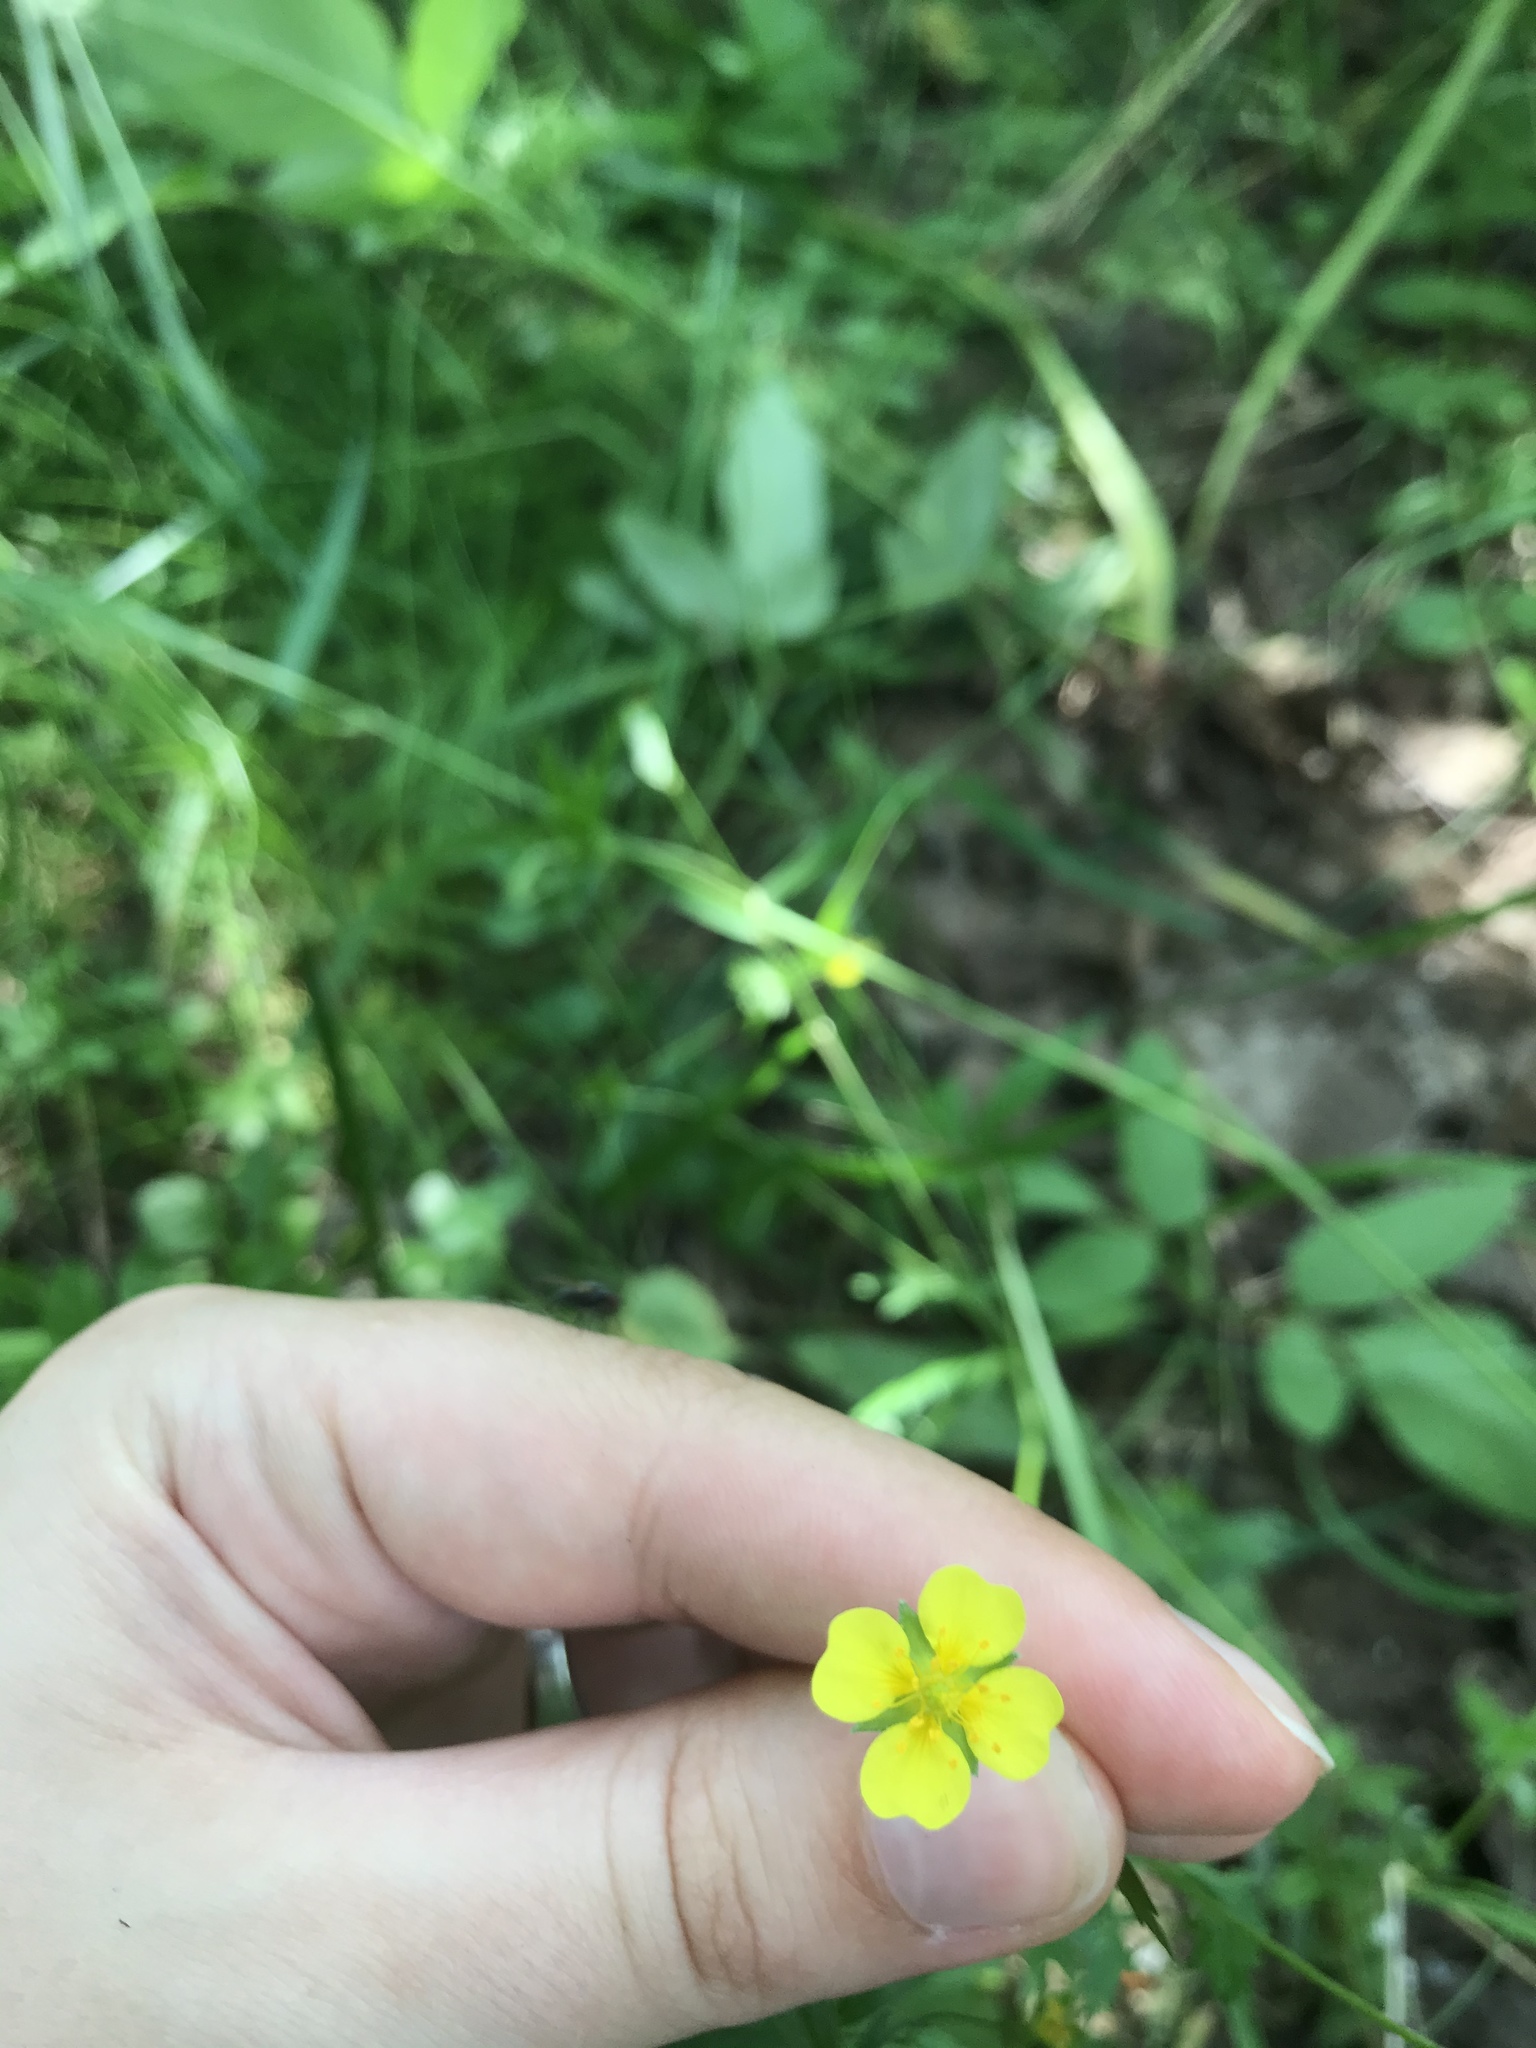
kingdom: Plantae
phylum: Tracheophyta
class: Magnoliopsida
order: Rosales
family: Rosaceae
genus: Potentilla
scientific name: Potentilla erecta
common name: Tormentil
